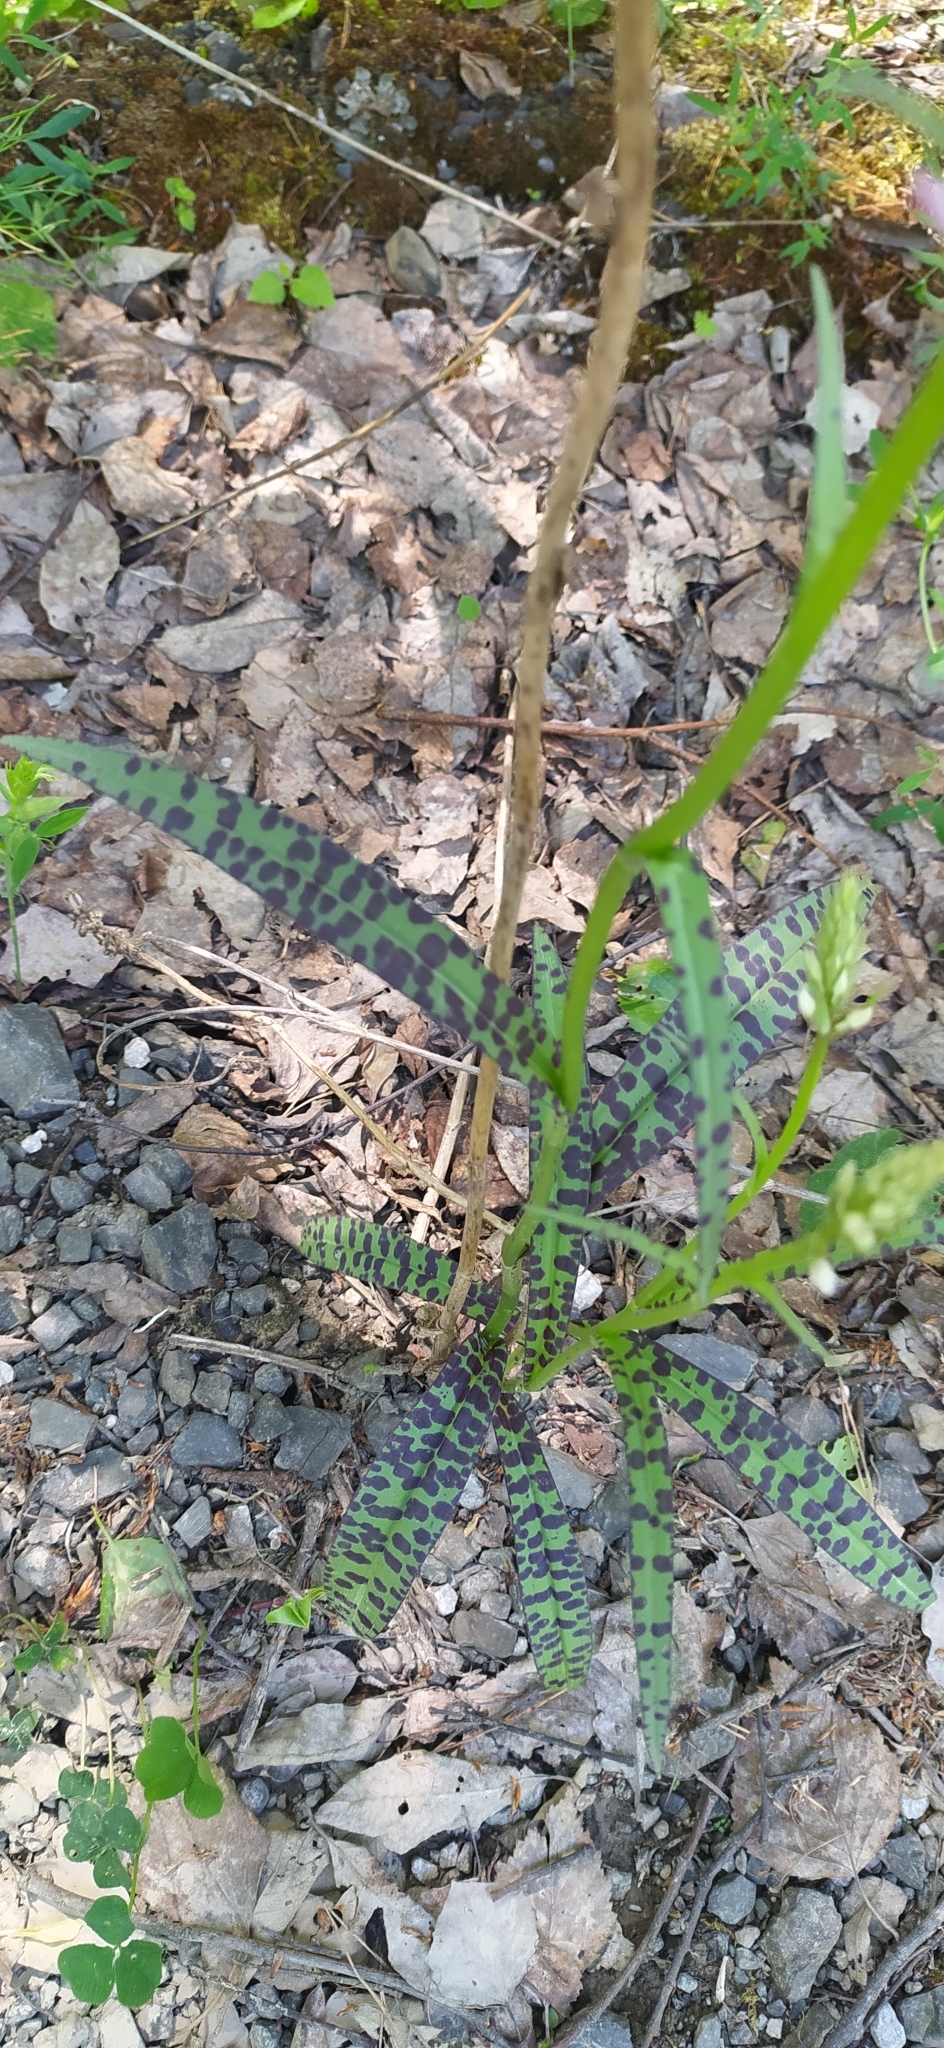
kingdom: Plantae
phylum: Tracheophyta
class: Liliopsida
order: Asparagales
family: Orchidaceae
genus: Dactylorhiza
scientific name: Dactylorhiza maculata
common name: Heath spotted-orchid
